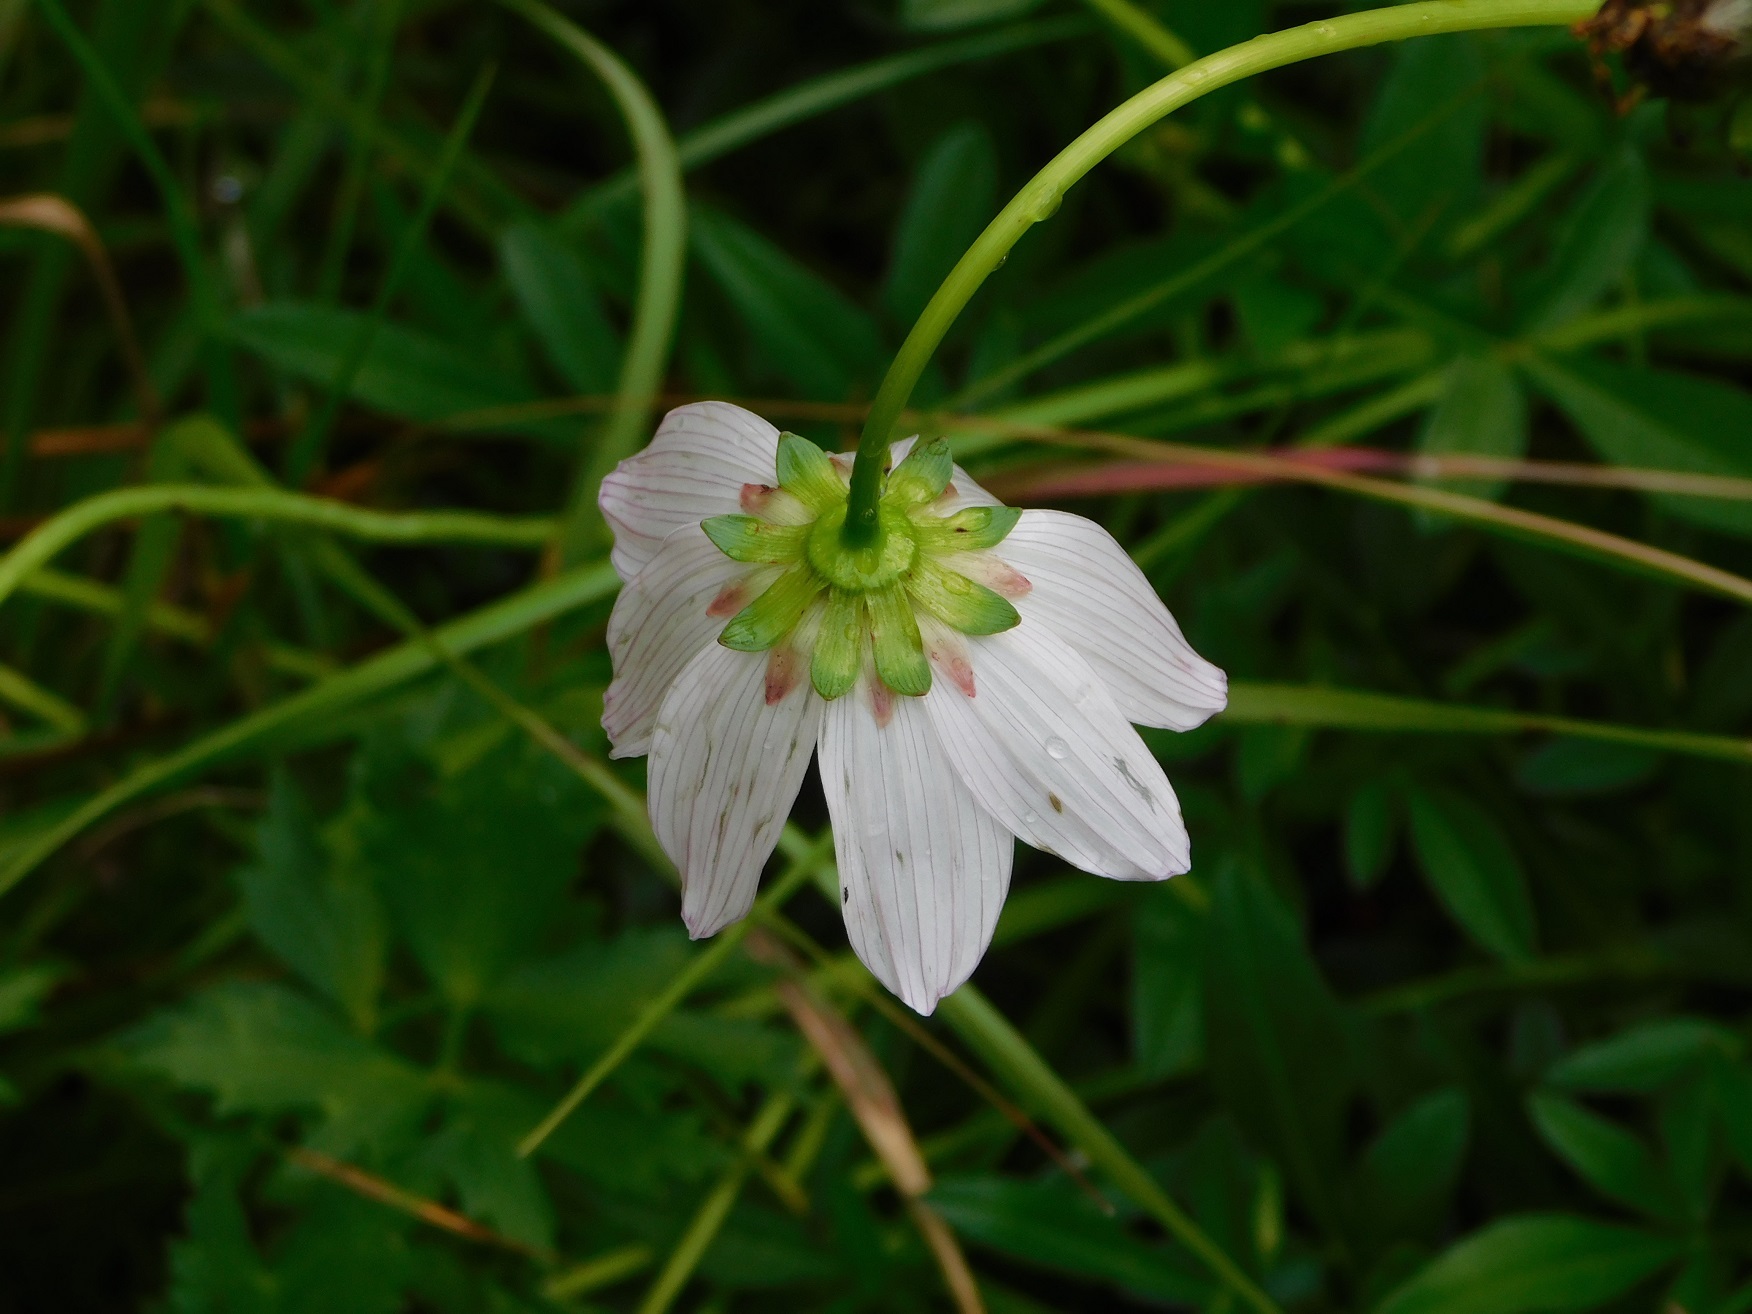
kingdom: Plantae
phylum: Tracheophyta
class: Magnoliopsida
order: Asterales
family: Asteraceae
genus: Cosmos
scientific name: Cosmos diversifolius
